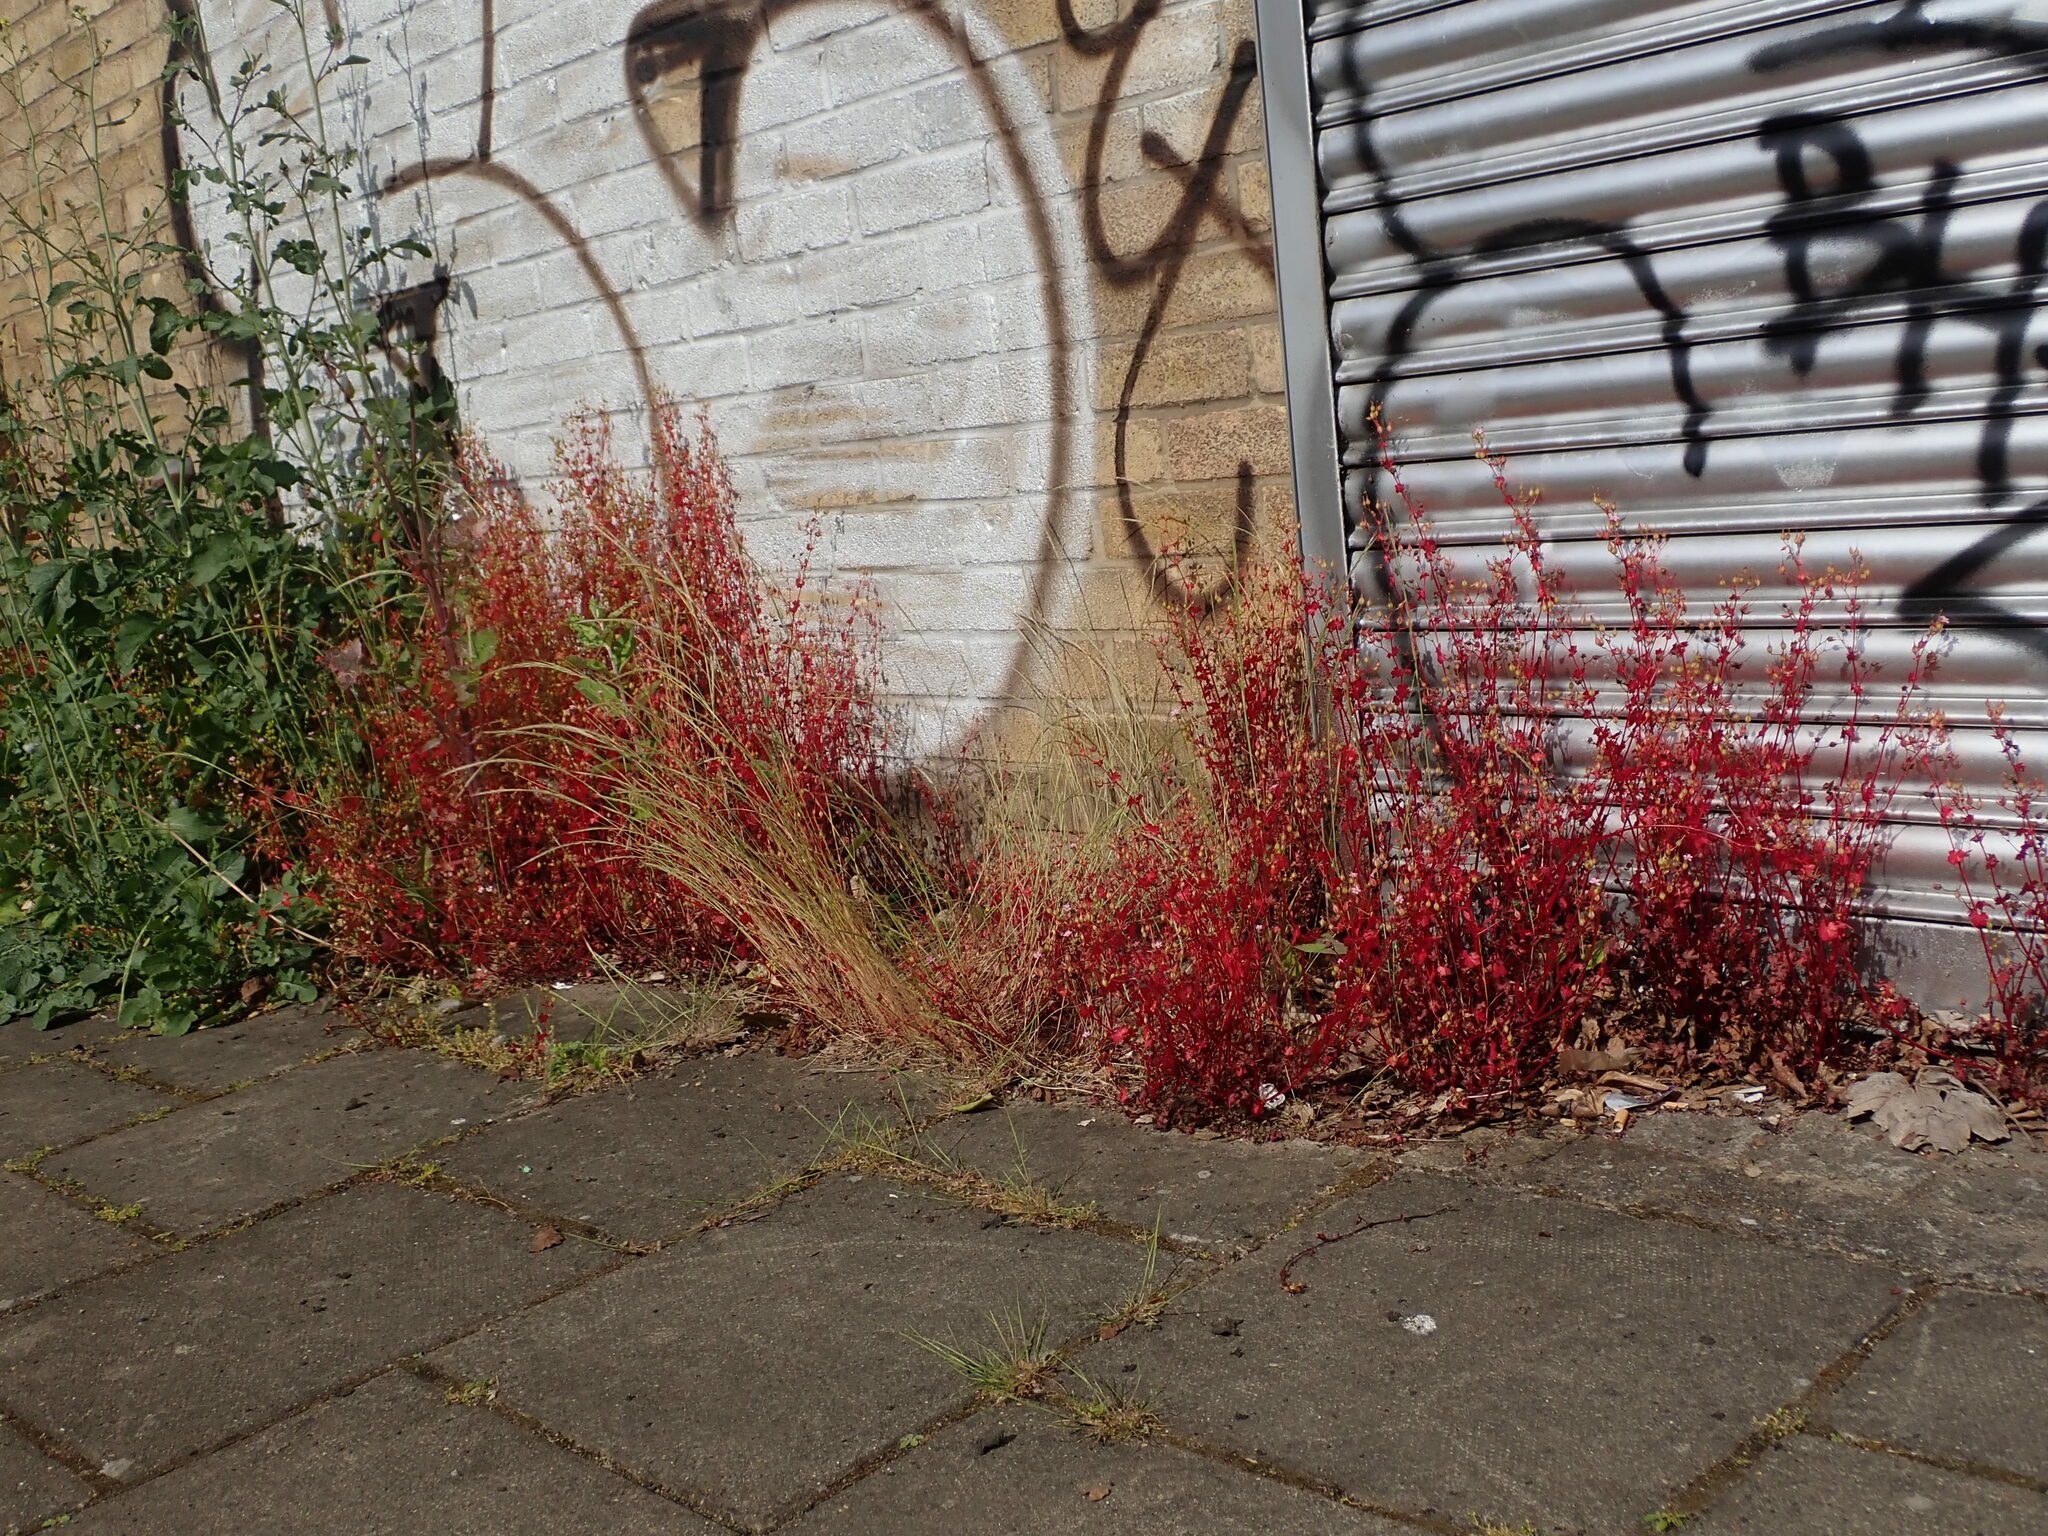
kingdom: Plantae
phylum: Tracheophyta
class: Magnoliopsida
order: Geraniales
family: Geraniaceae
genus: Geranium
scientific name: Geranium lucidum
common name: Shining crane's-bill
